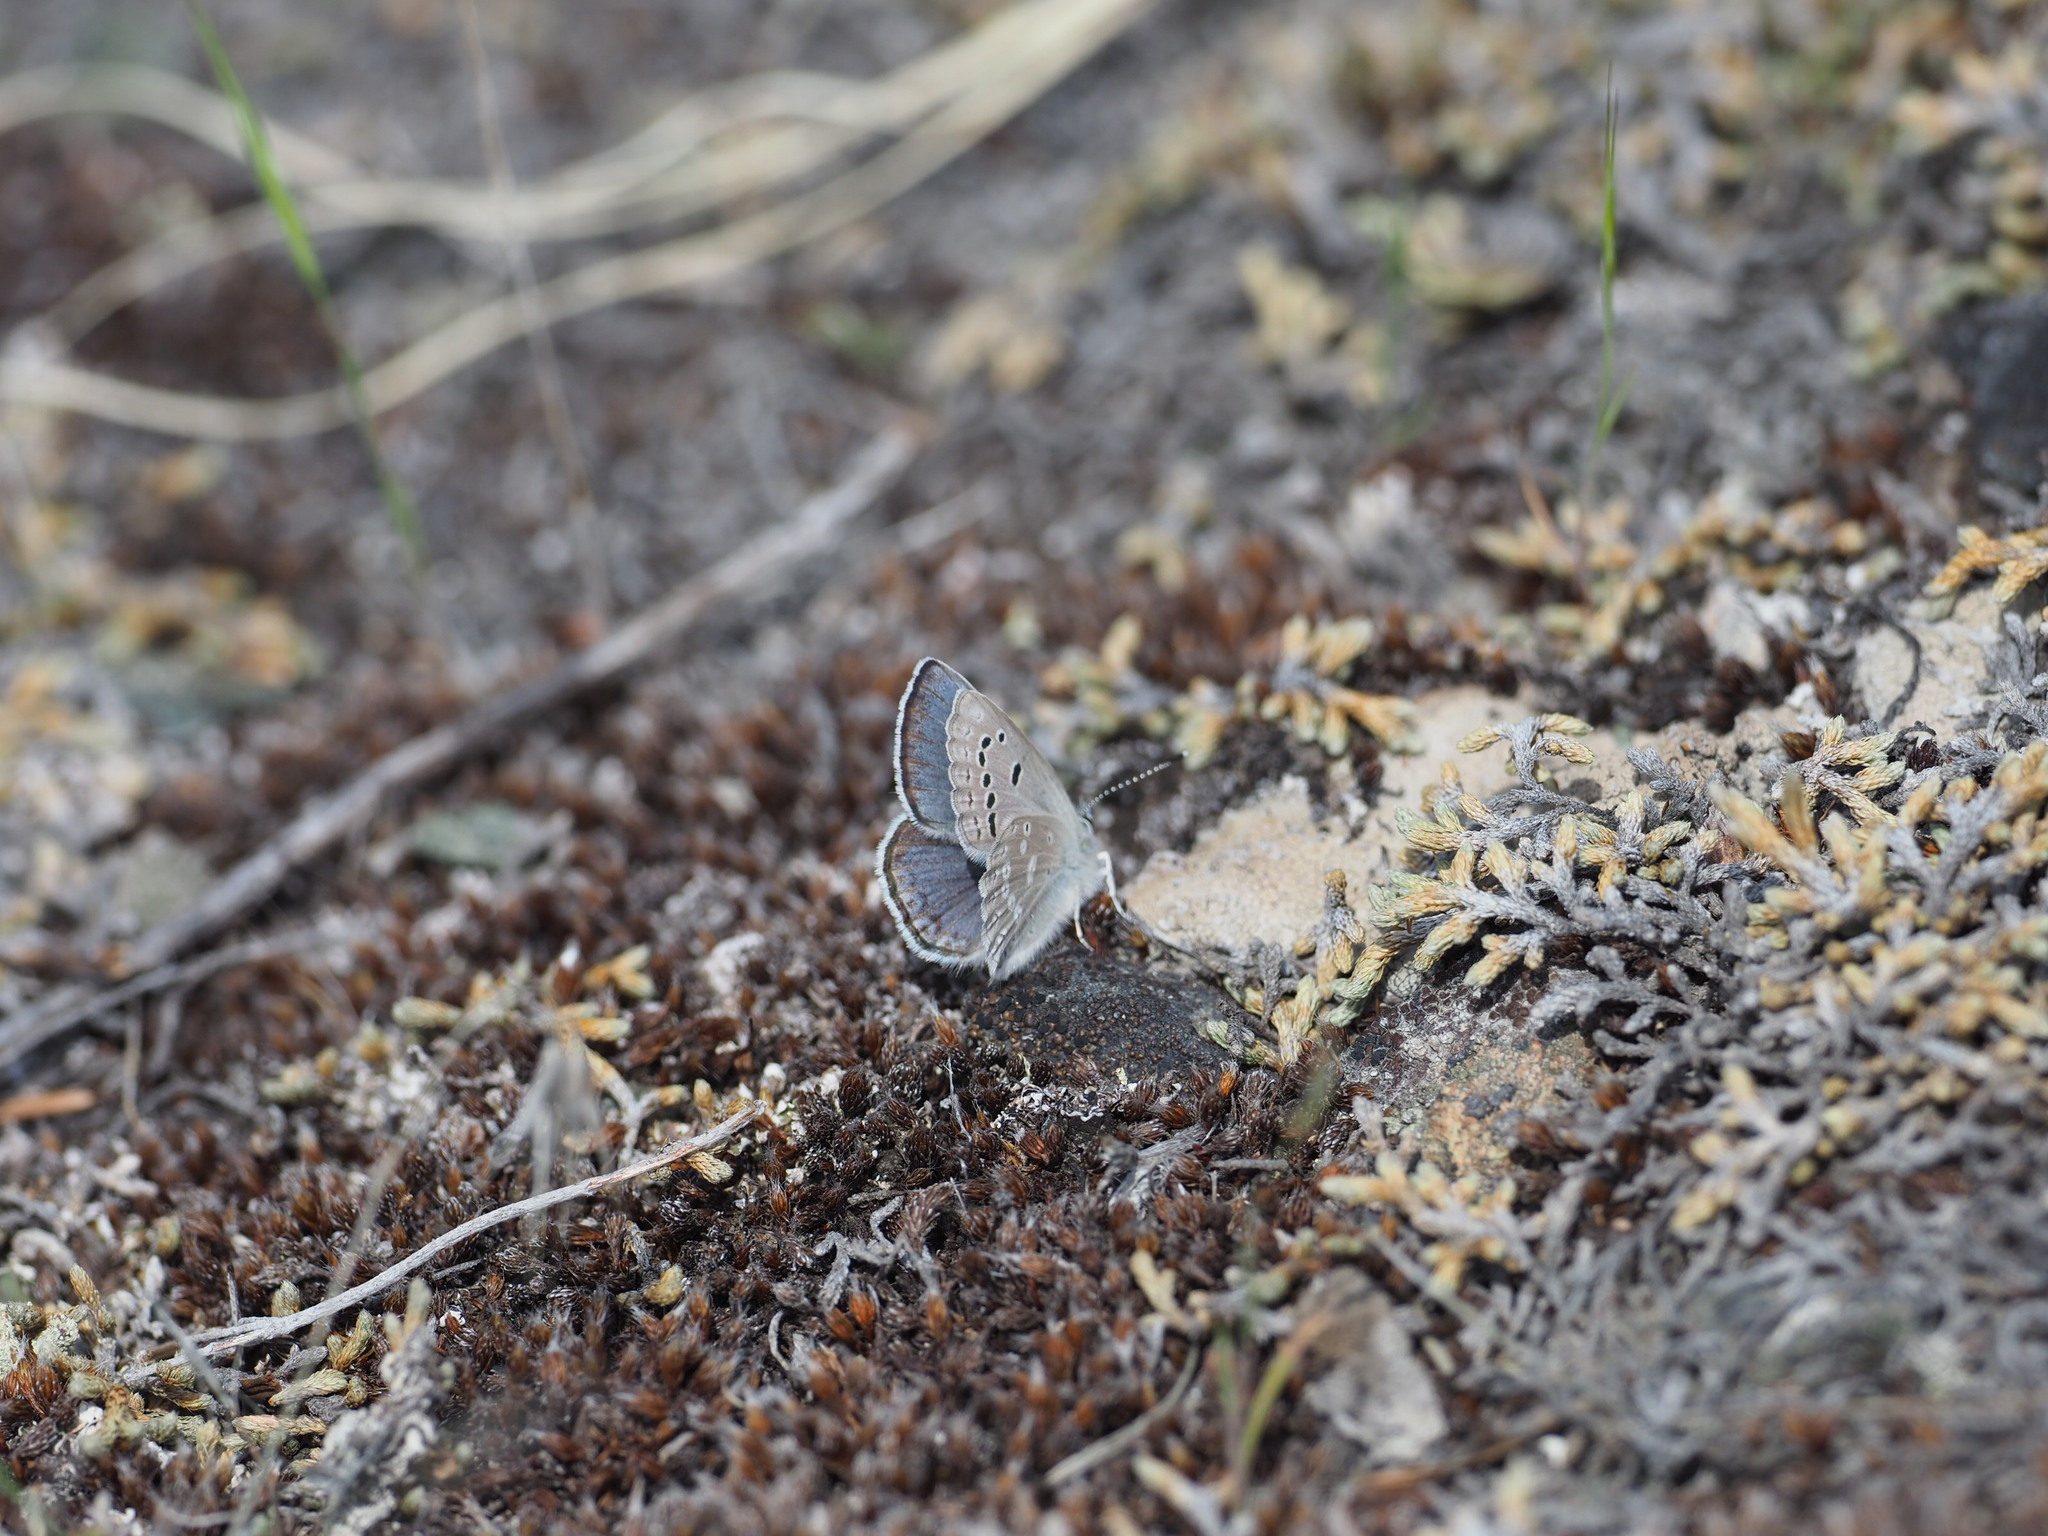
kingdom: Animalia
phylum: Arthropoda
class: Insecta
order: Lepidoptera
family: Lycaenidae
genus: Icaricia
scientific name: Icaricia icarioides
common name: Boisduval's blue
